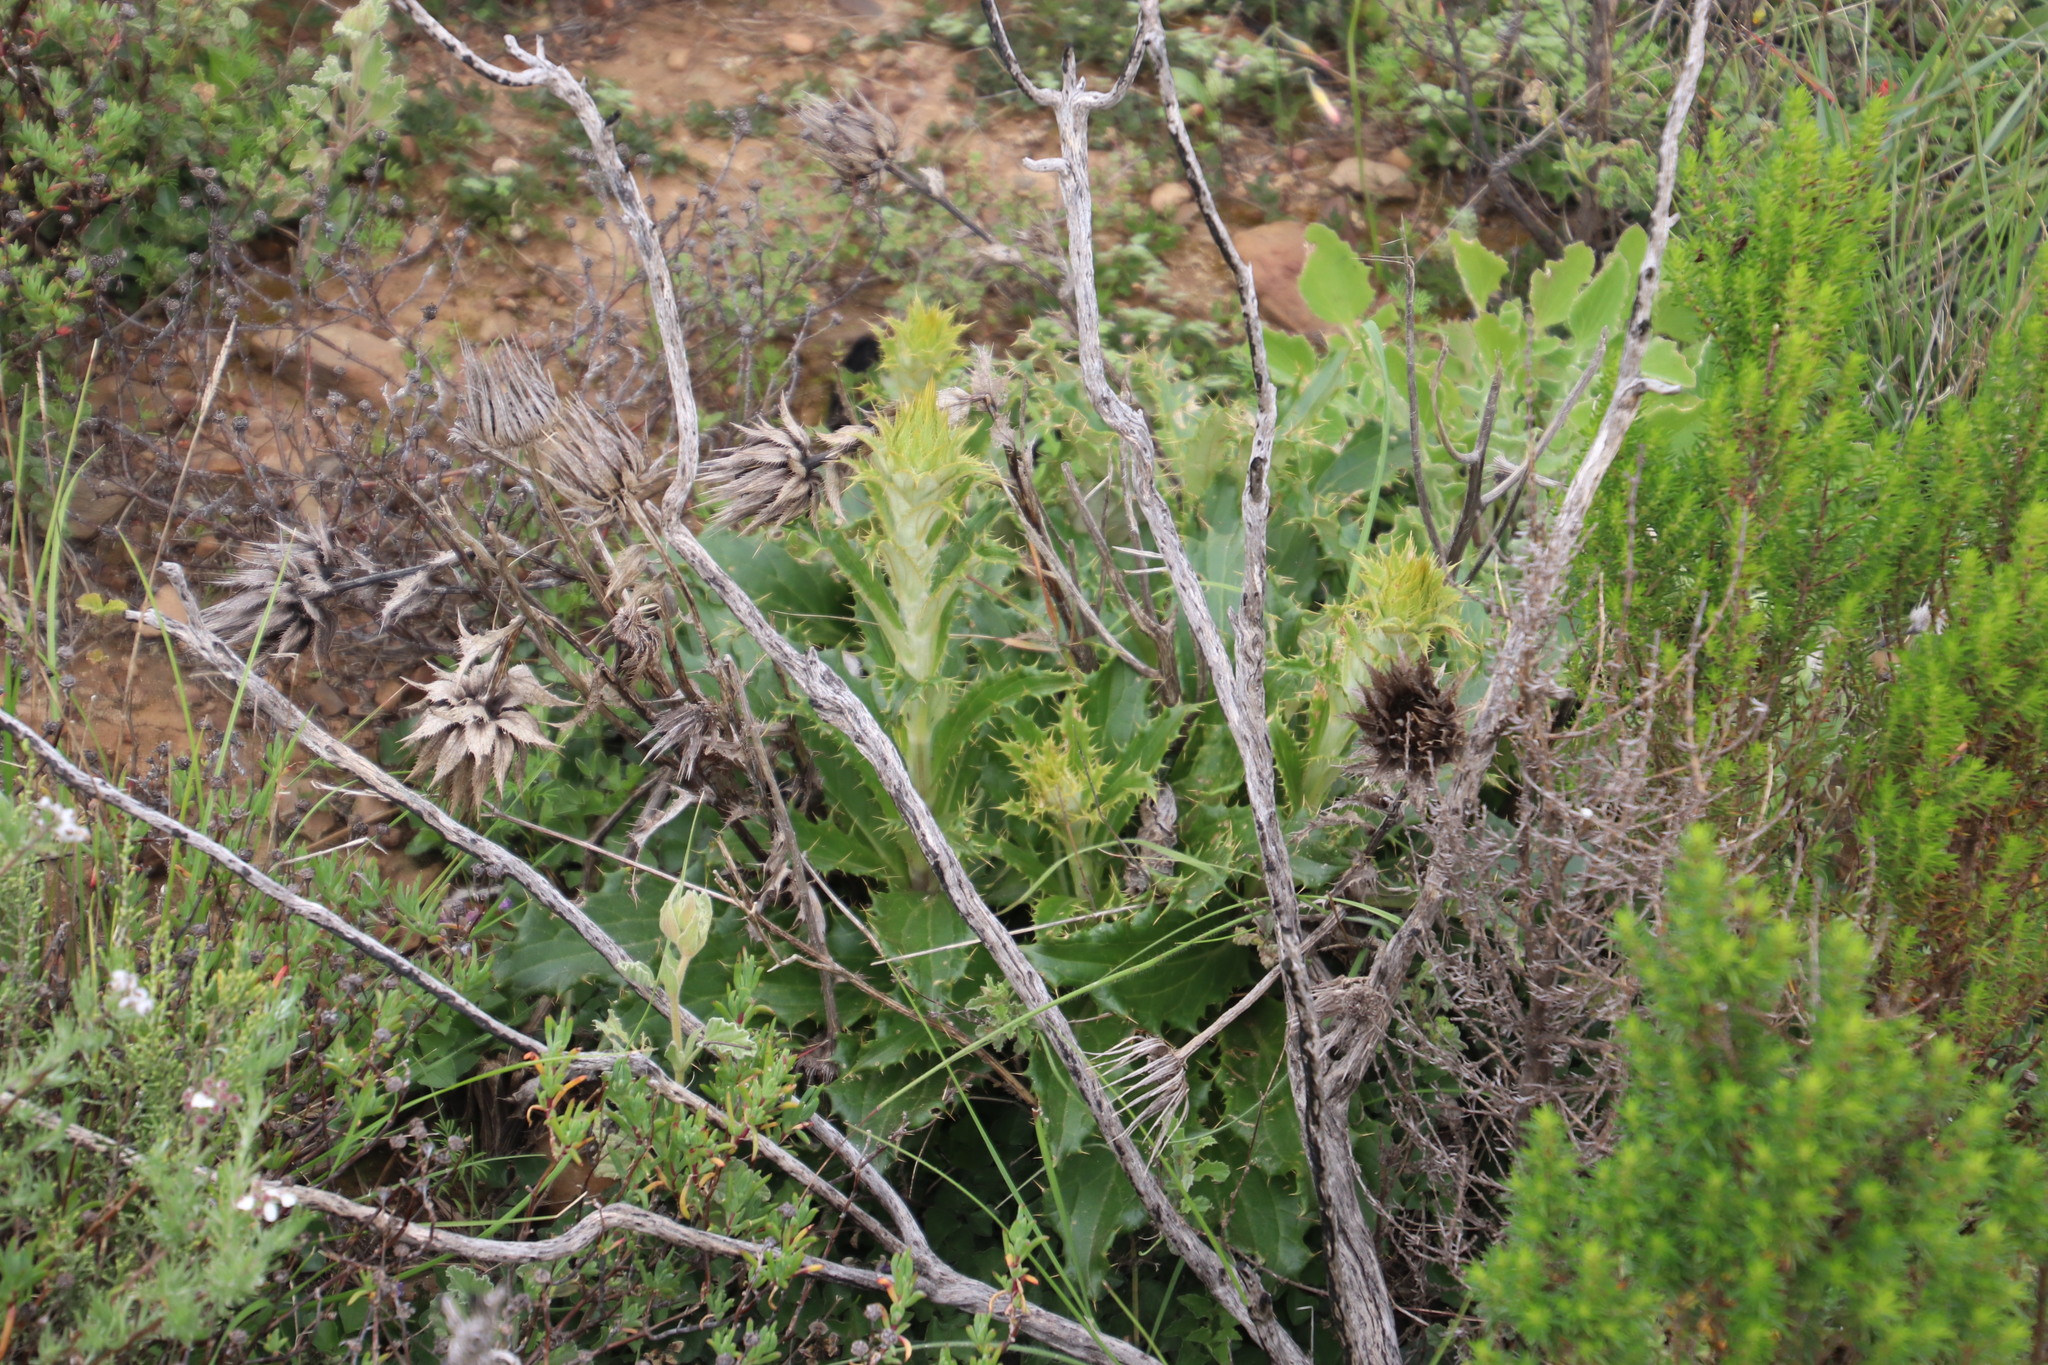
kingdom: Plantae
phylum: Tracheophyta
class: Magnoliopsida
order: Asterales
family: Asteraceae
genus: Berkheya
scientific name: Berkheya armata
